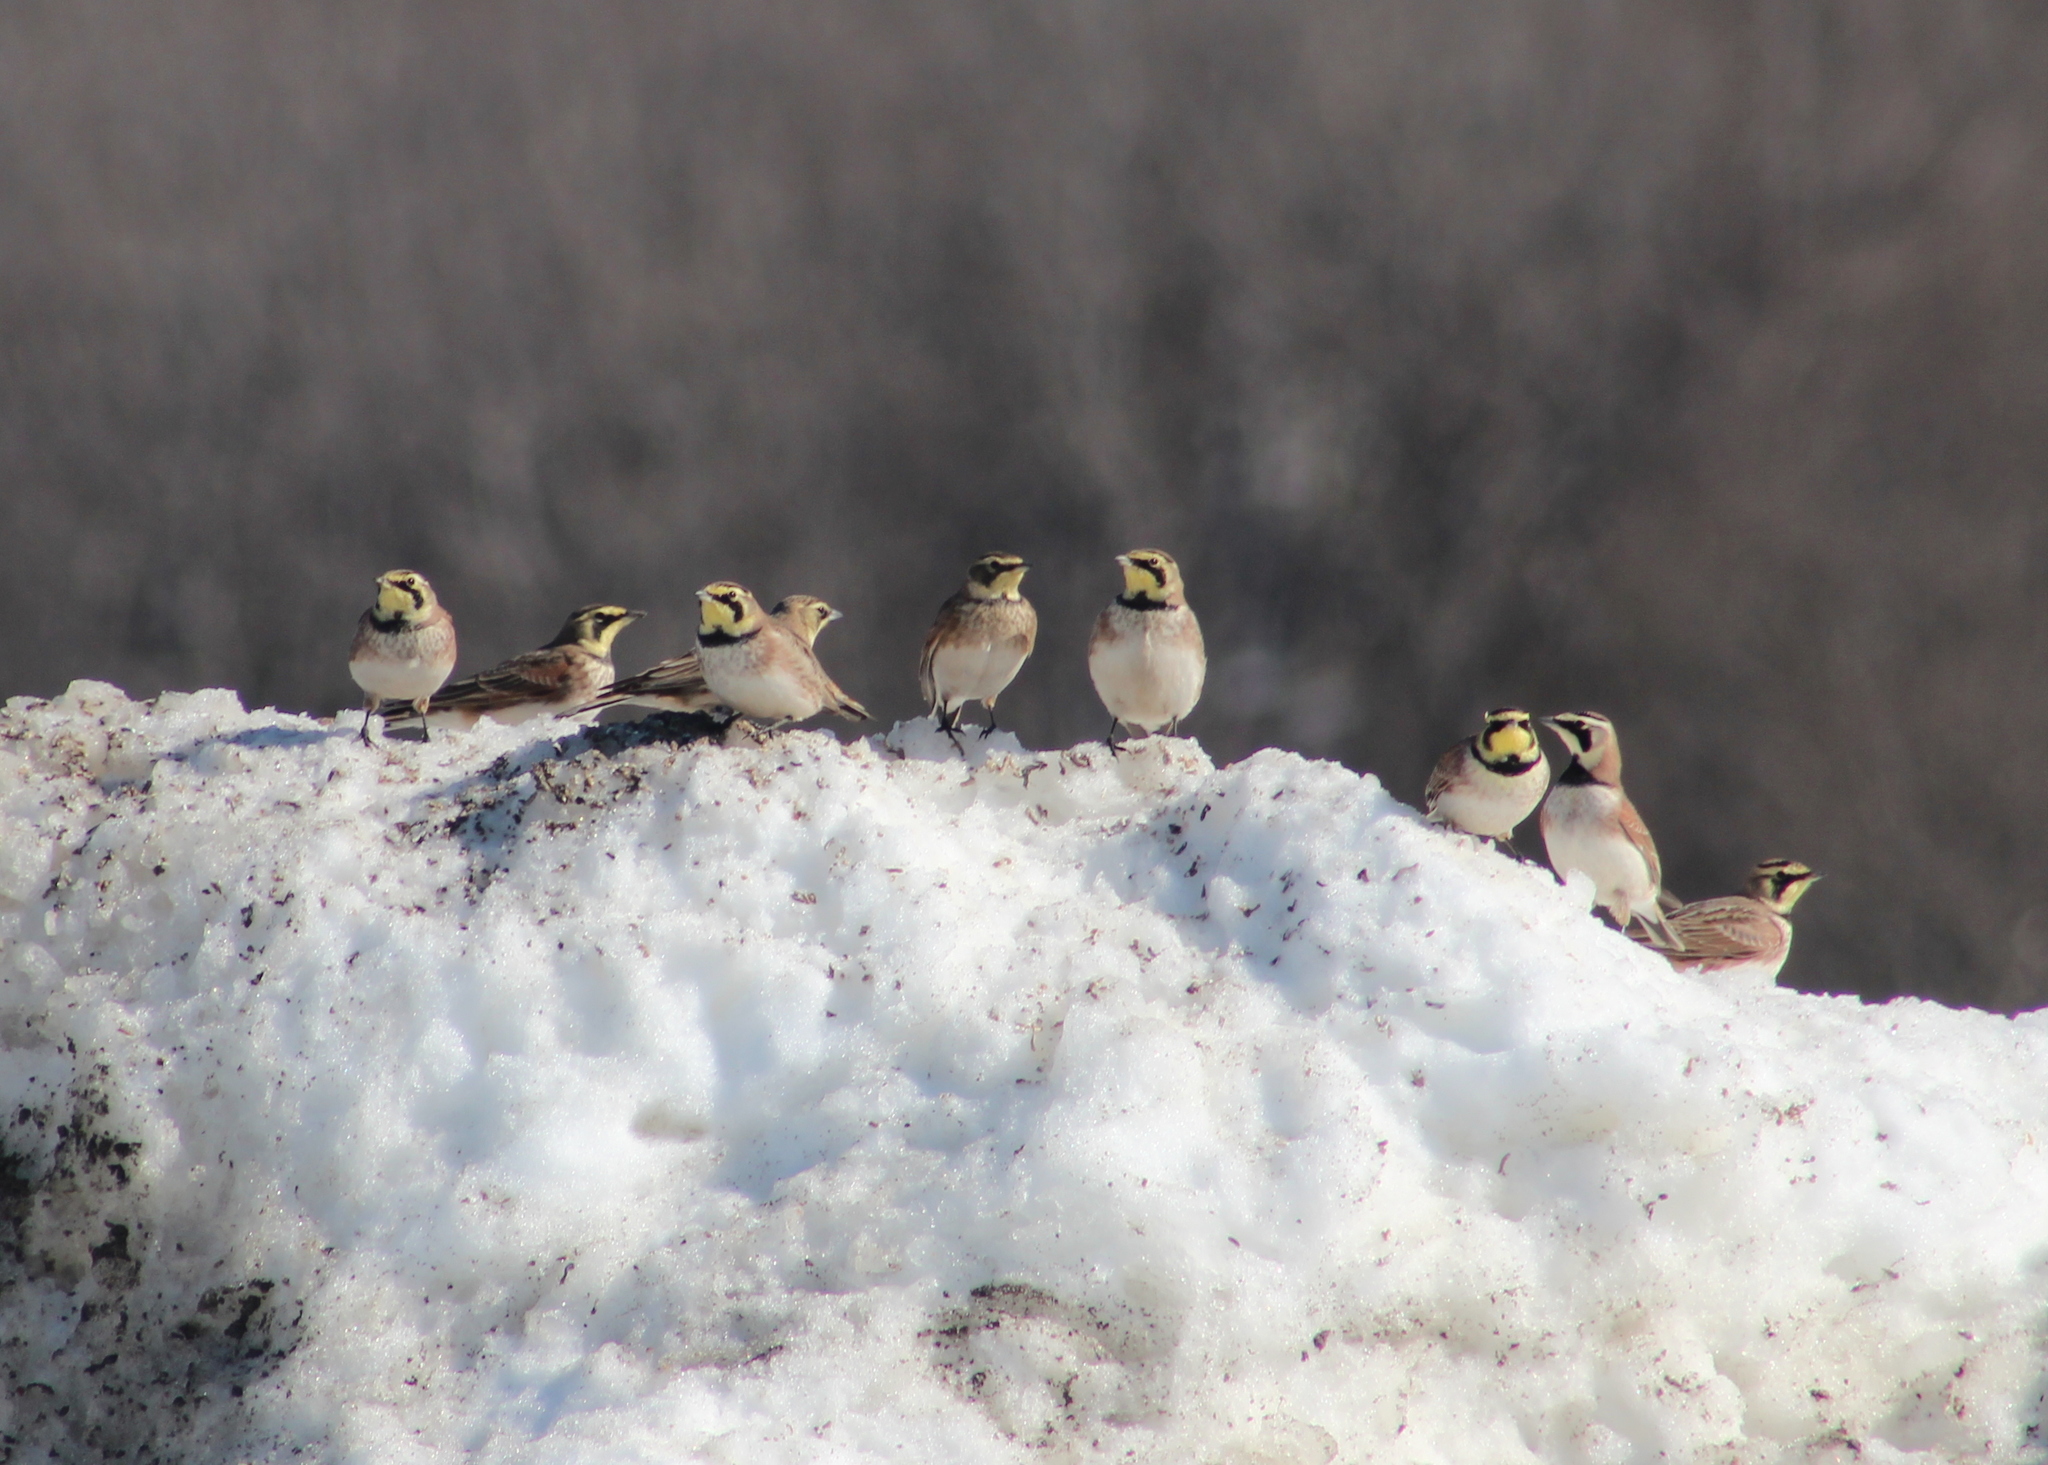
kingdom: Animalia
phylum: Chordata
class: Aves
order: Passeriformes
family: Alaudidae
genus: Eremophila
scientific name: Eremophila alpestris
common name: Horned lark
